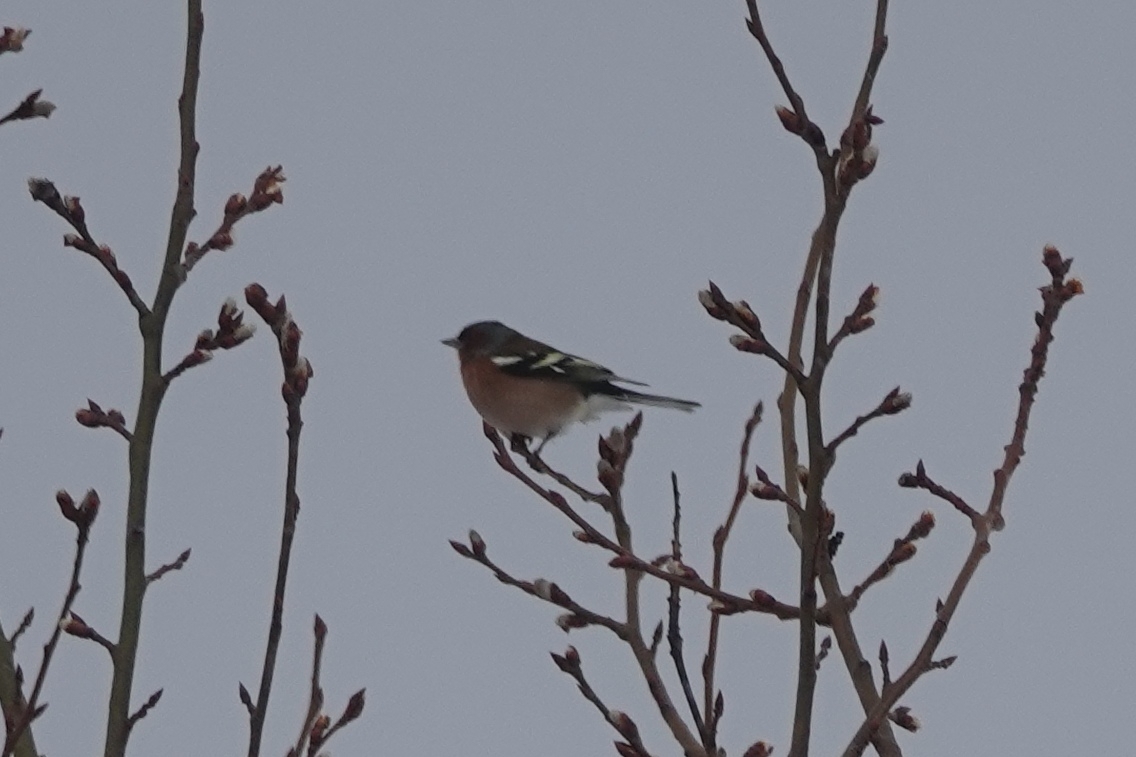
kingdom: Animalia
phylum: Chordata
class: Aves
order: Passeriformes
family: Fringillidae
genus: Fringilla
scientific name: Fringilla coelebs
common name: Common chaffinch
